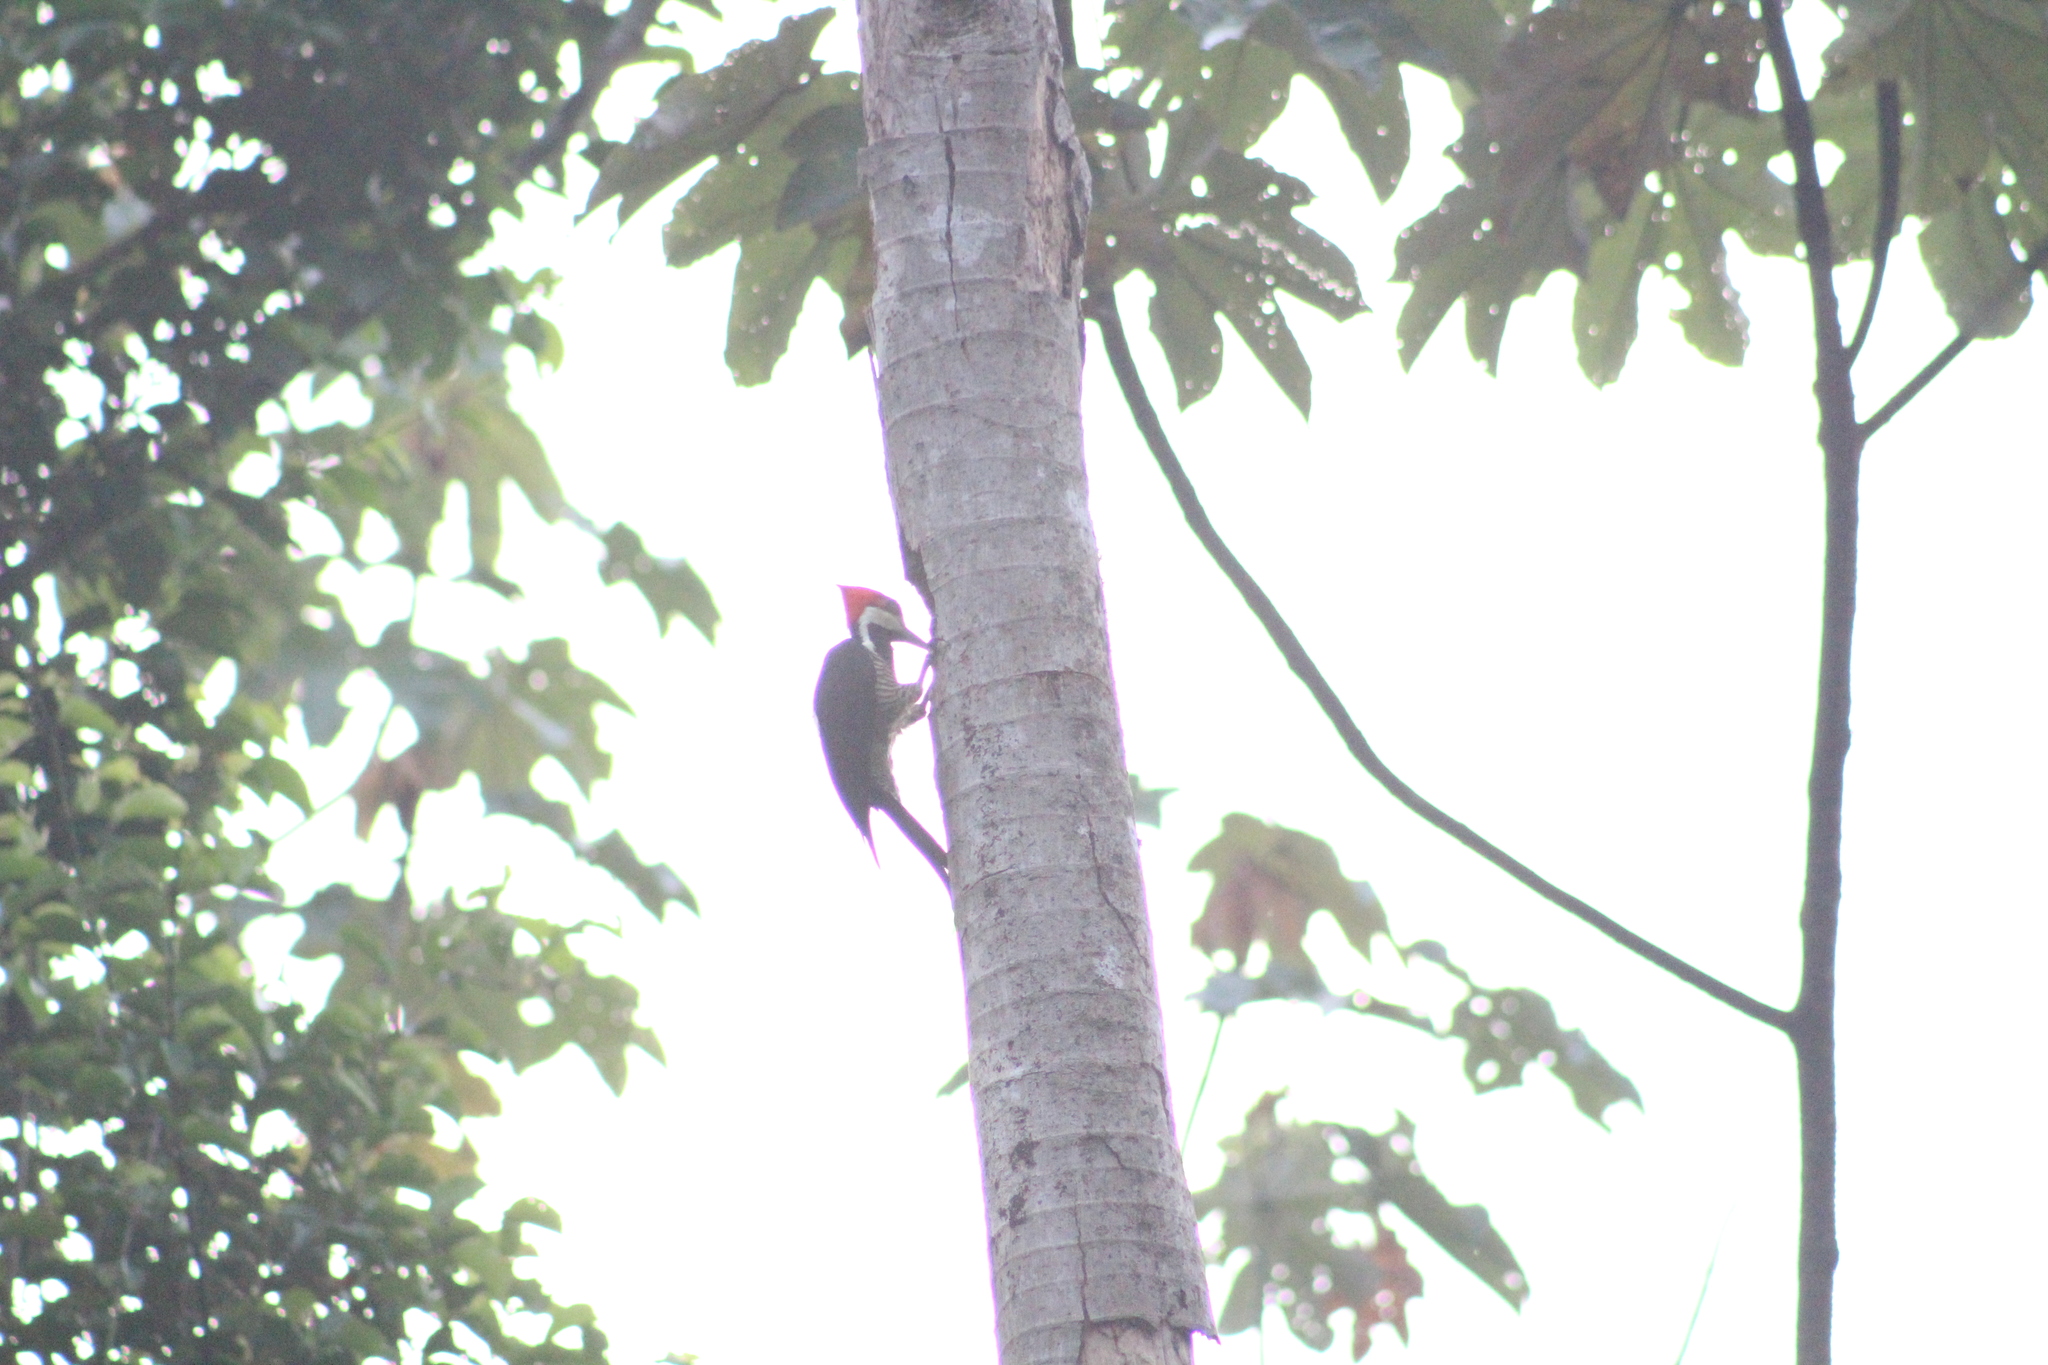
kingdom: Animalia
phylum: Chordata
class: Aves
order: Piciformes
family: Picidae
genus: Campephilus
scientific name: Campephilus melanoleucos
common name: Crimson-crested woodpecker
